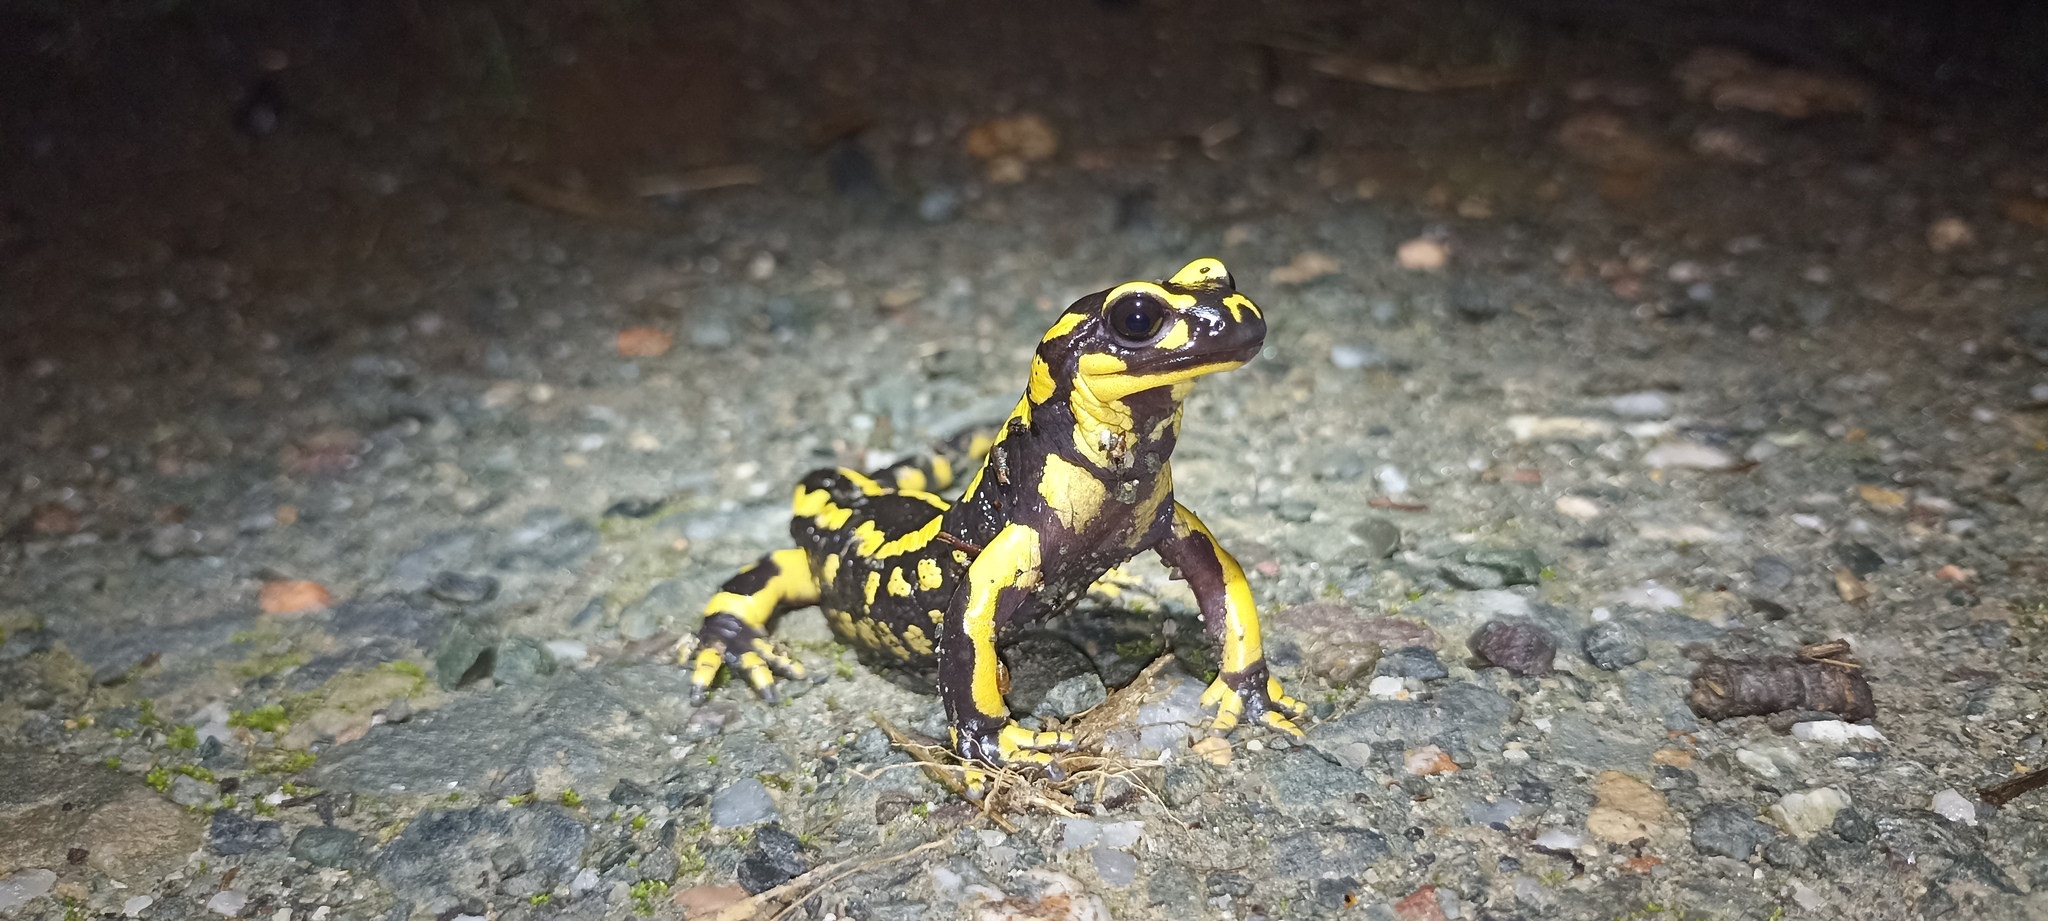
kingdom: Animalia
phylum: Chordata
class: Amphibia
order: Caudata
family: Salamandridae
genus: Salamandra
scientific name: Salamandra salamandra
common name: Fire salamander
